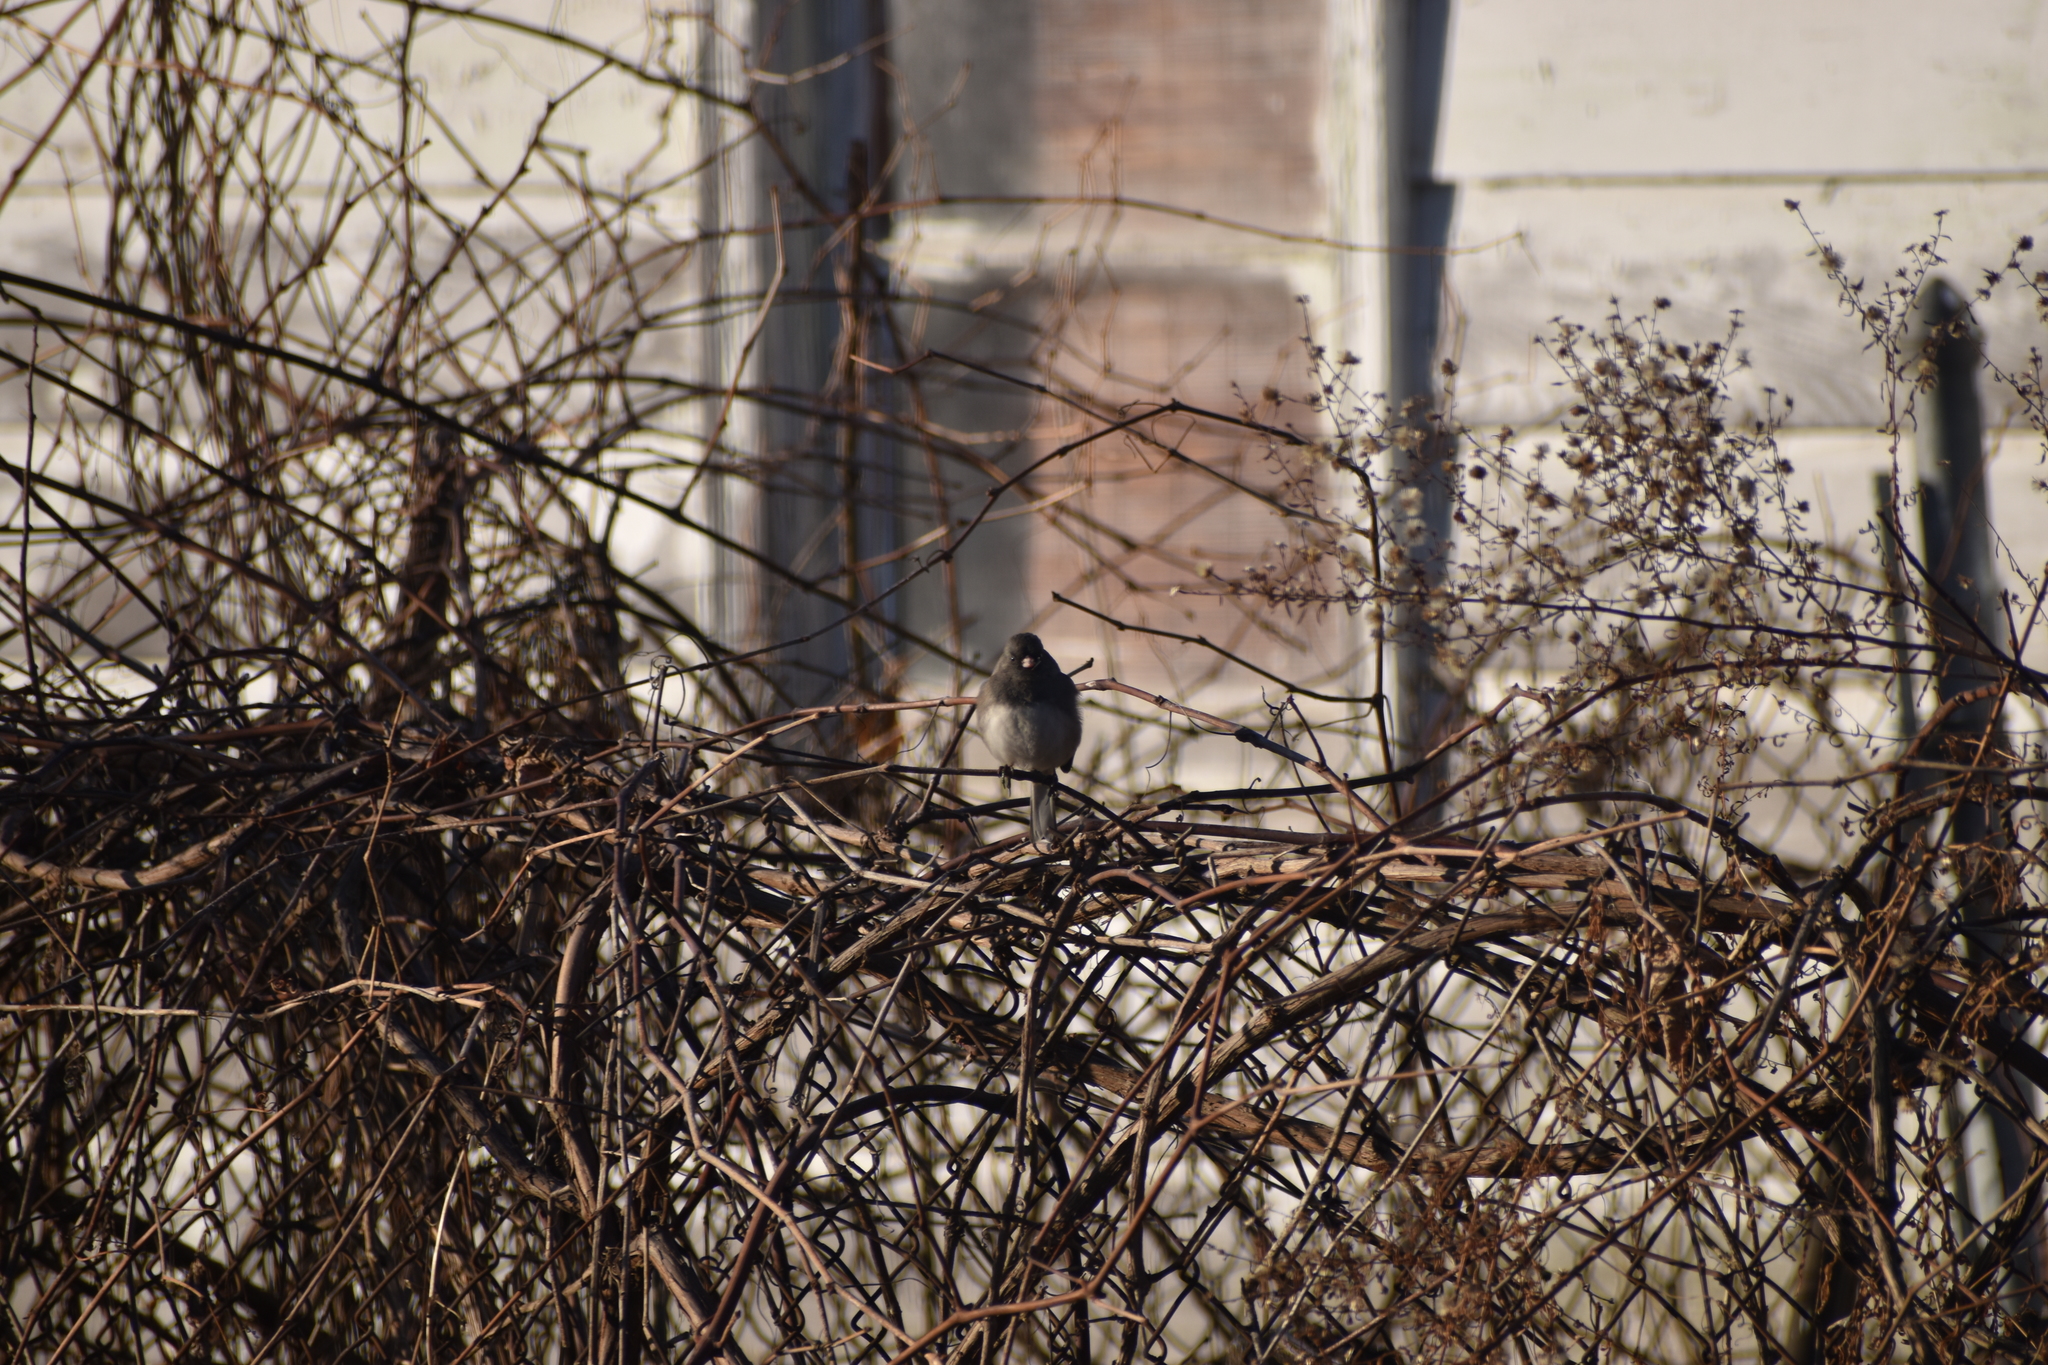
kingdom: Animalia
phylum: Chordata
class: Aves
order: Passeriformes
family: Passerellidae
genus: Junco
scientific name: Junco hyemalis
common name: Dark-eyed junco
